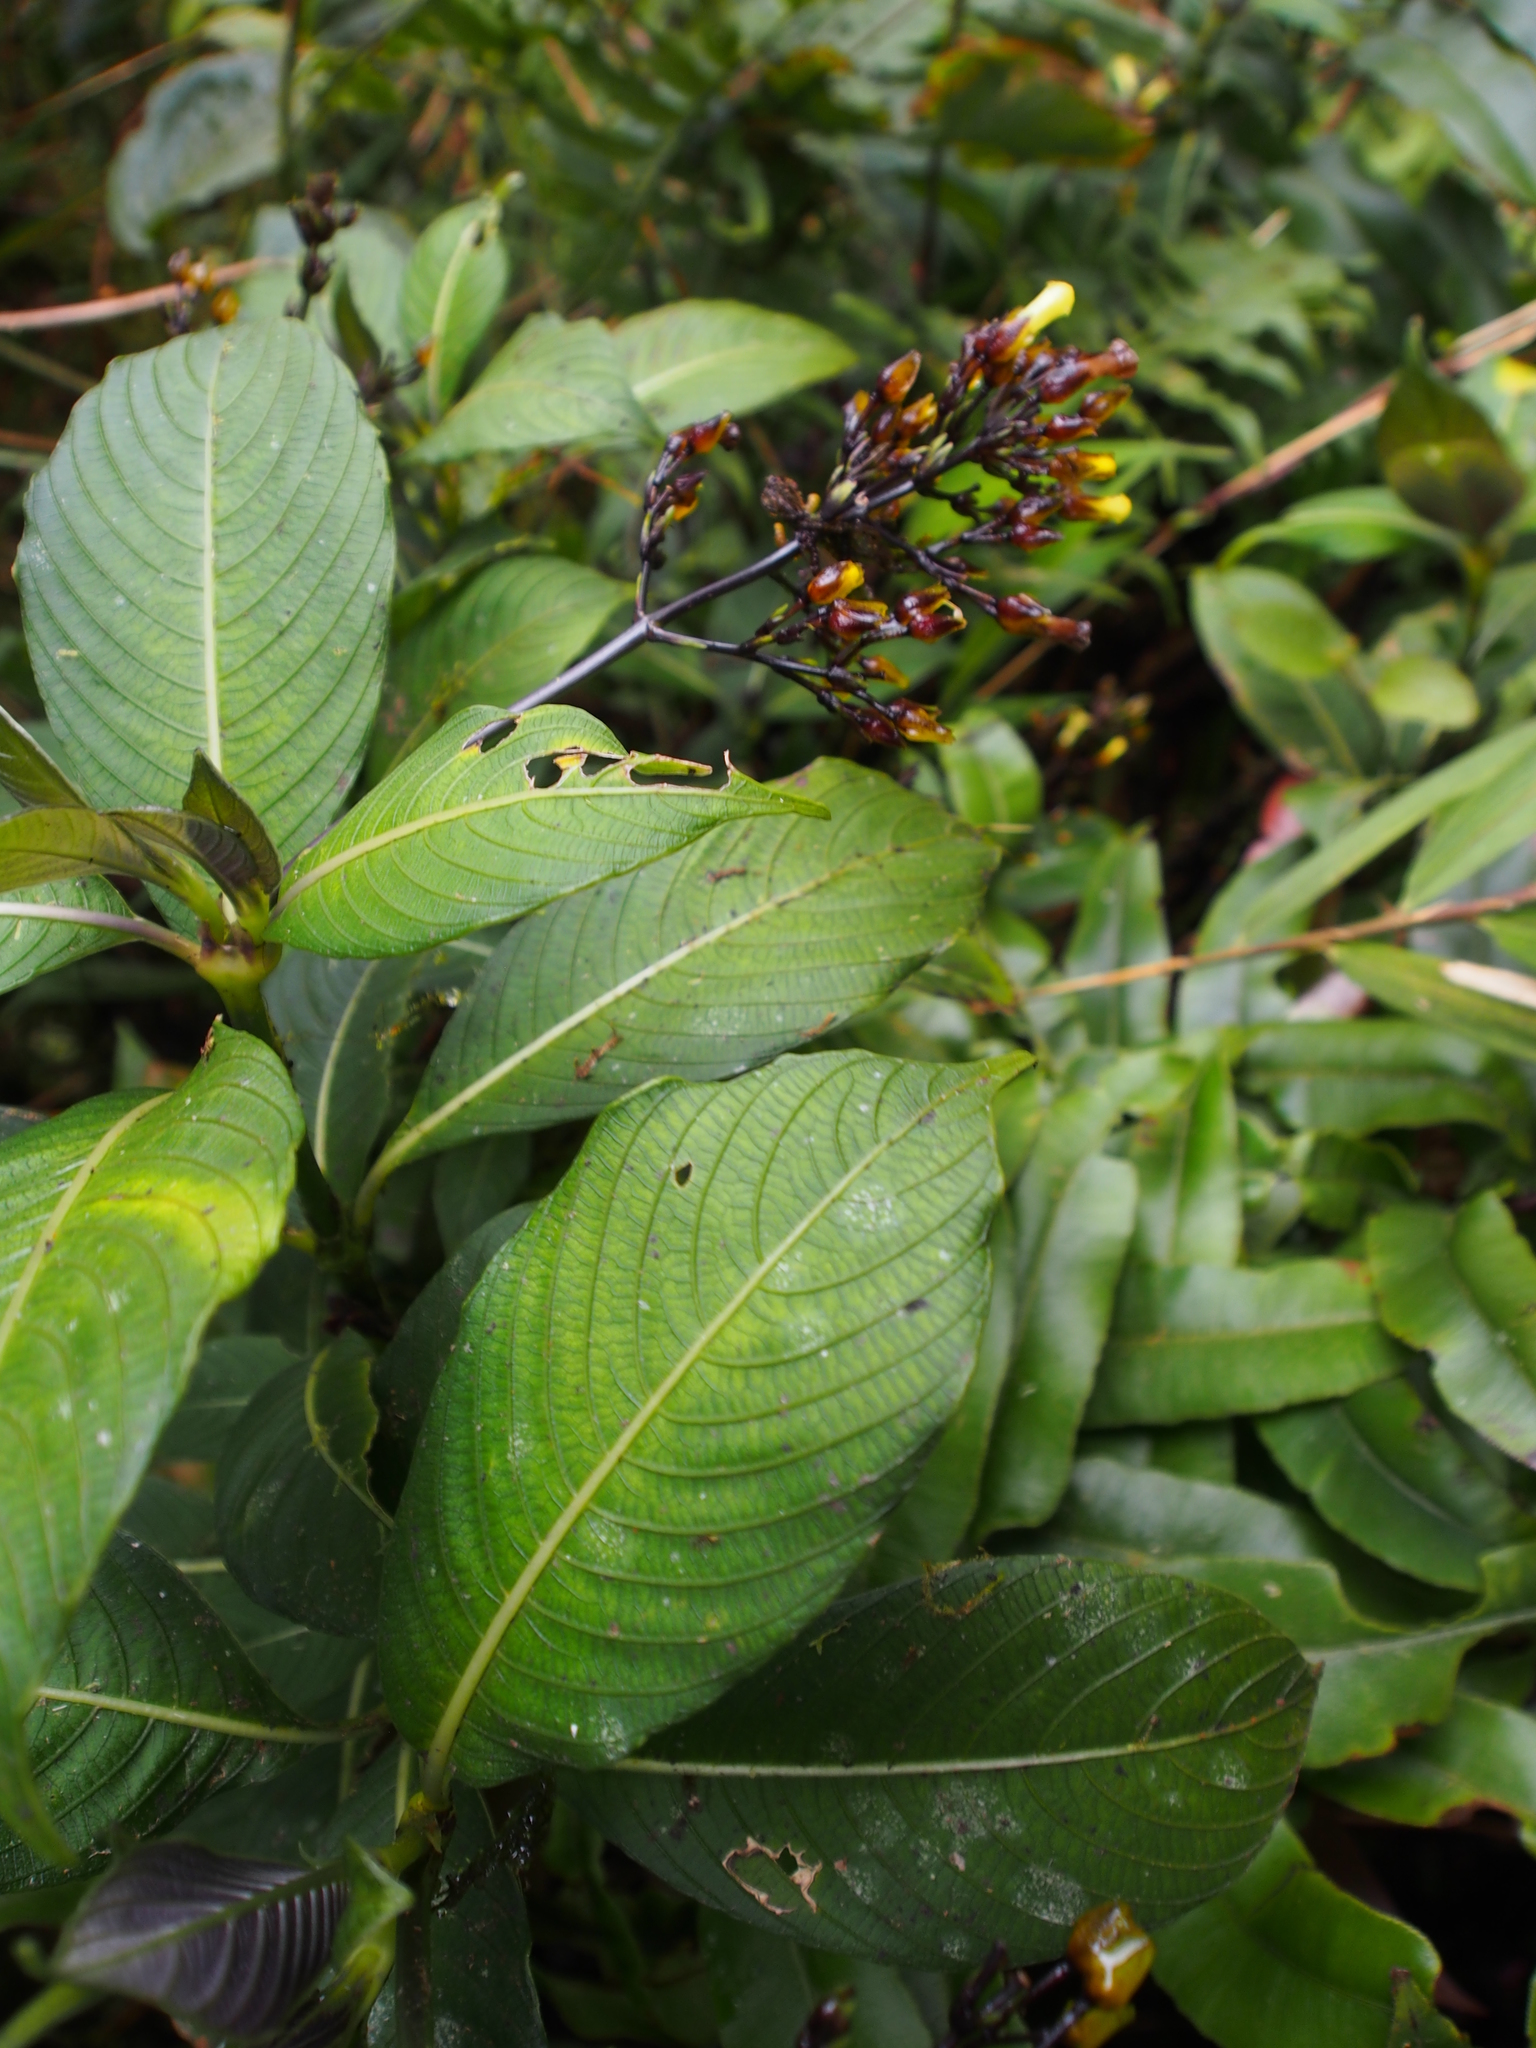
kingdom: Plantae
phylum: Tracheophyta
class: Magnoliopsida
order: Gentianales
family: Rubiaceae
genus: Palicourea
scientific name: Palicourea macrocalyx
